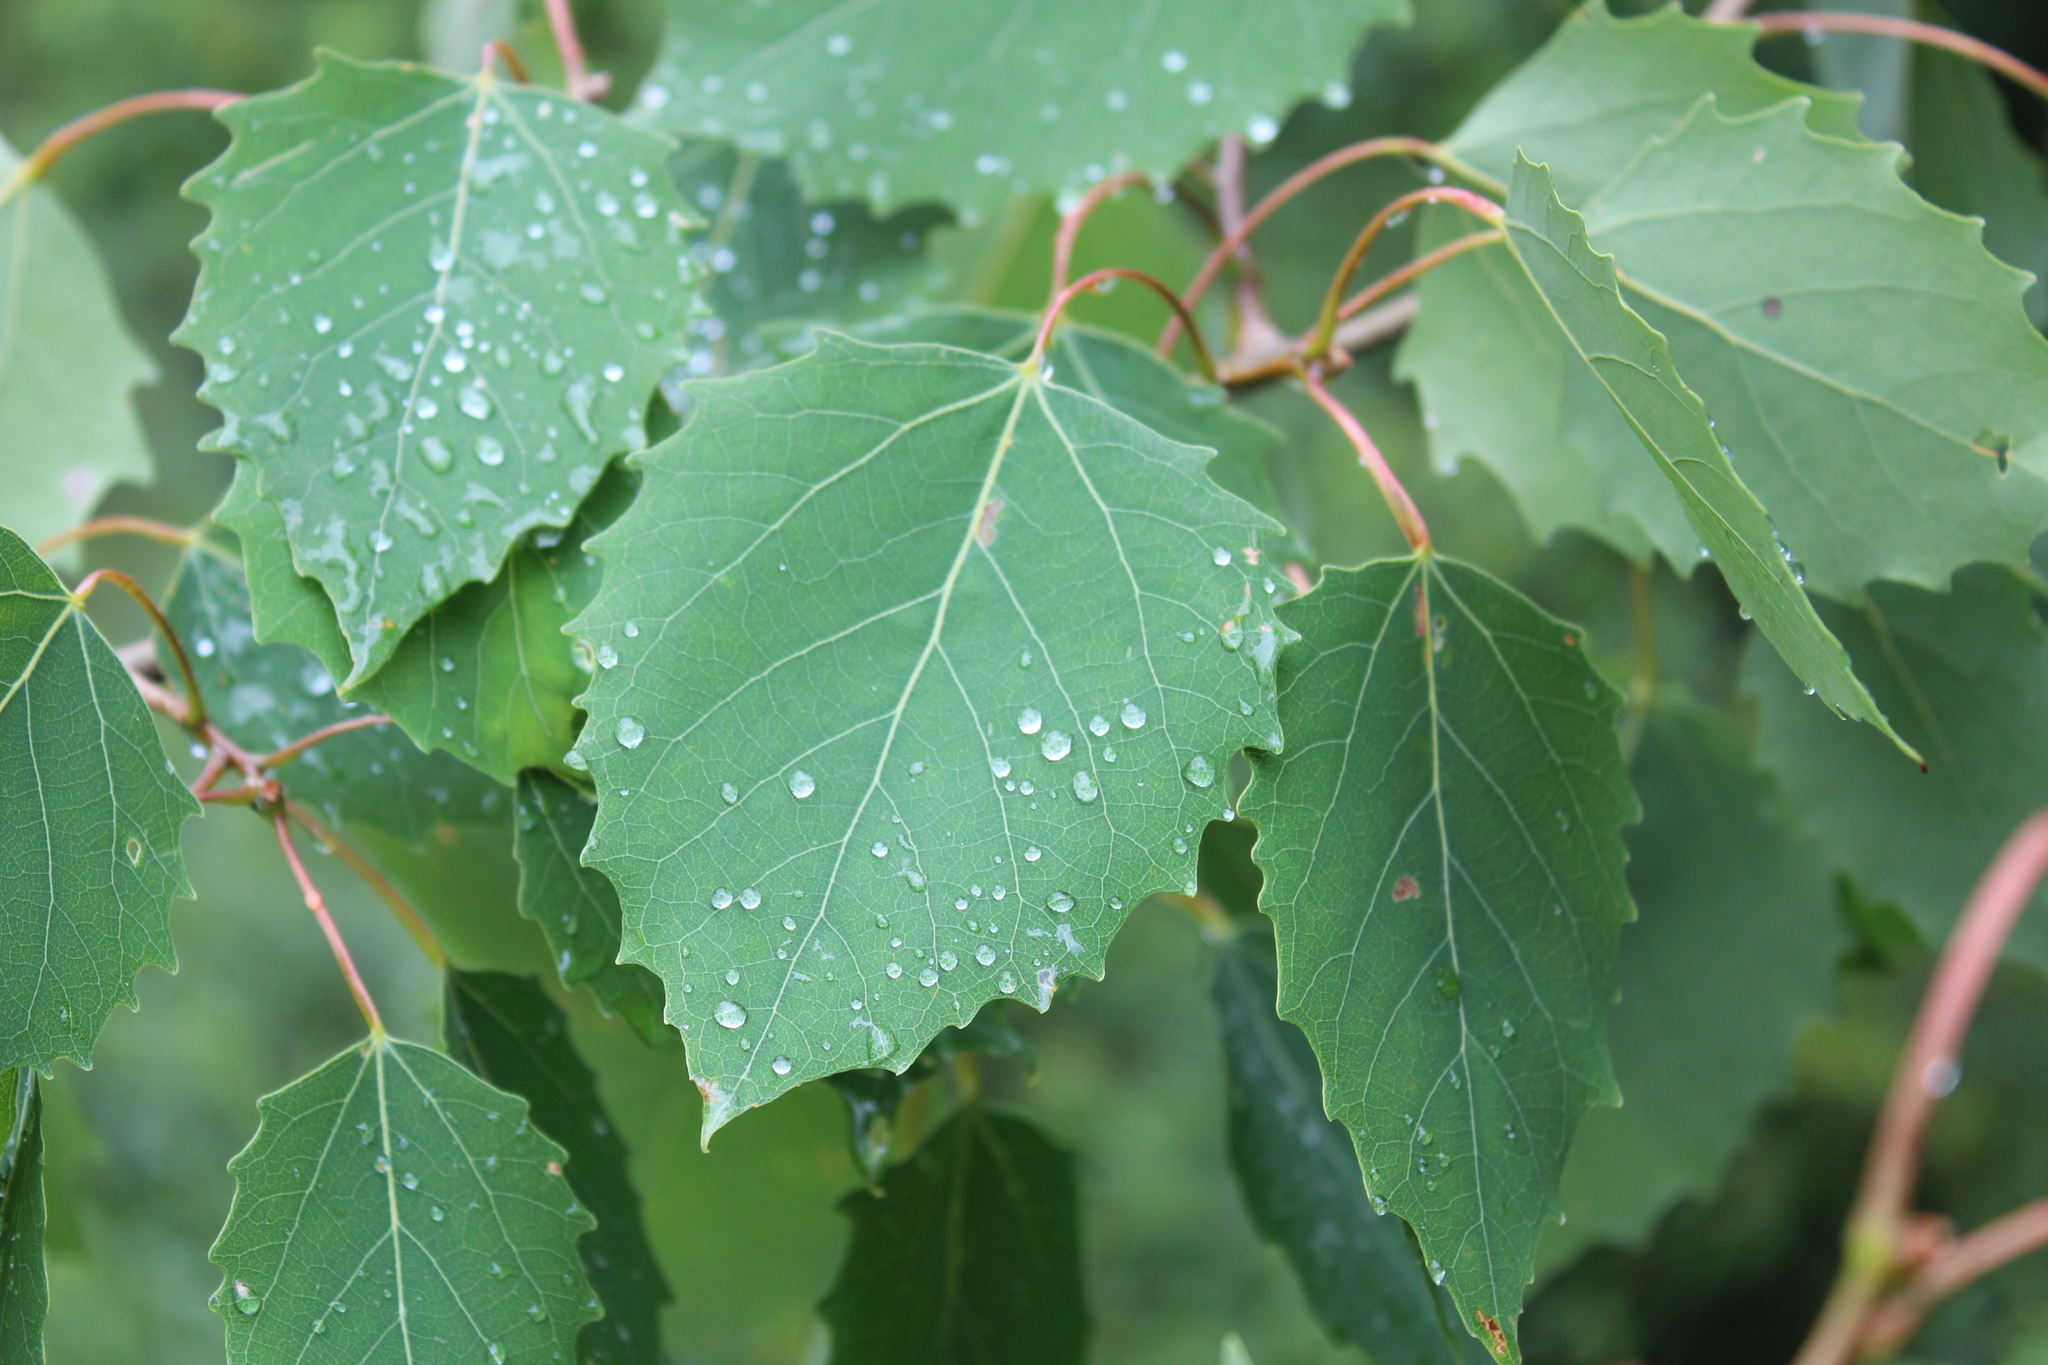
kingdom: Plantae
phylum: Tracheophyta
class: Magnoliopsida
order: Malpighiales
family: Salicaceae
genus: Populus
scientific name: Populus grandidentata
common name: Bigtooth aspen
